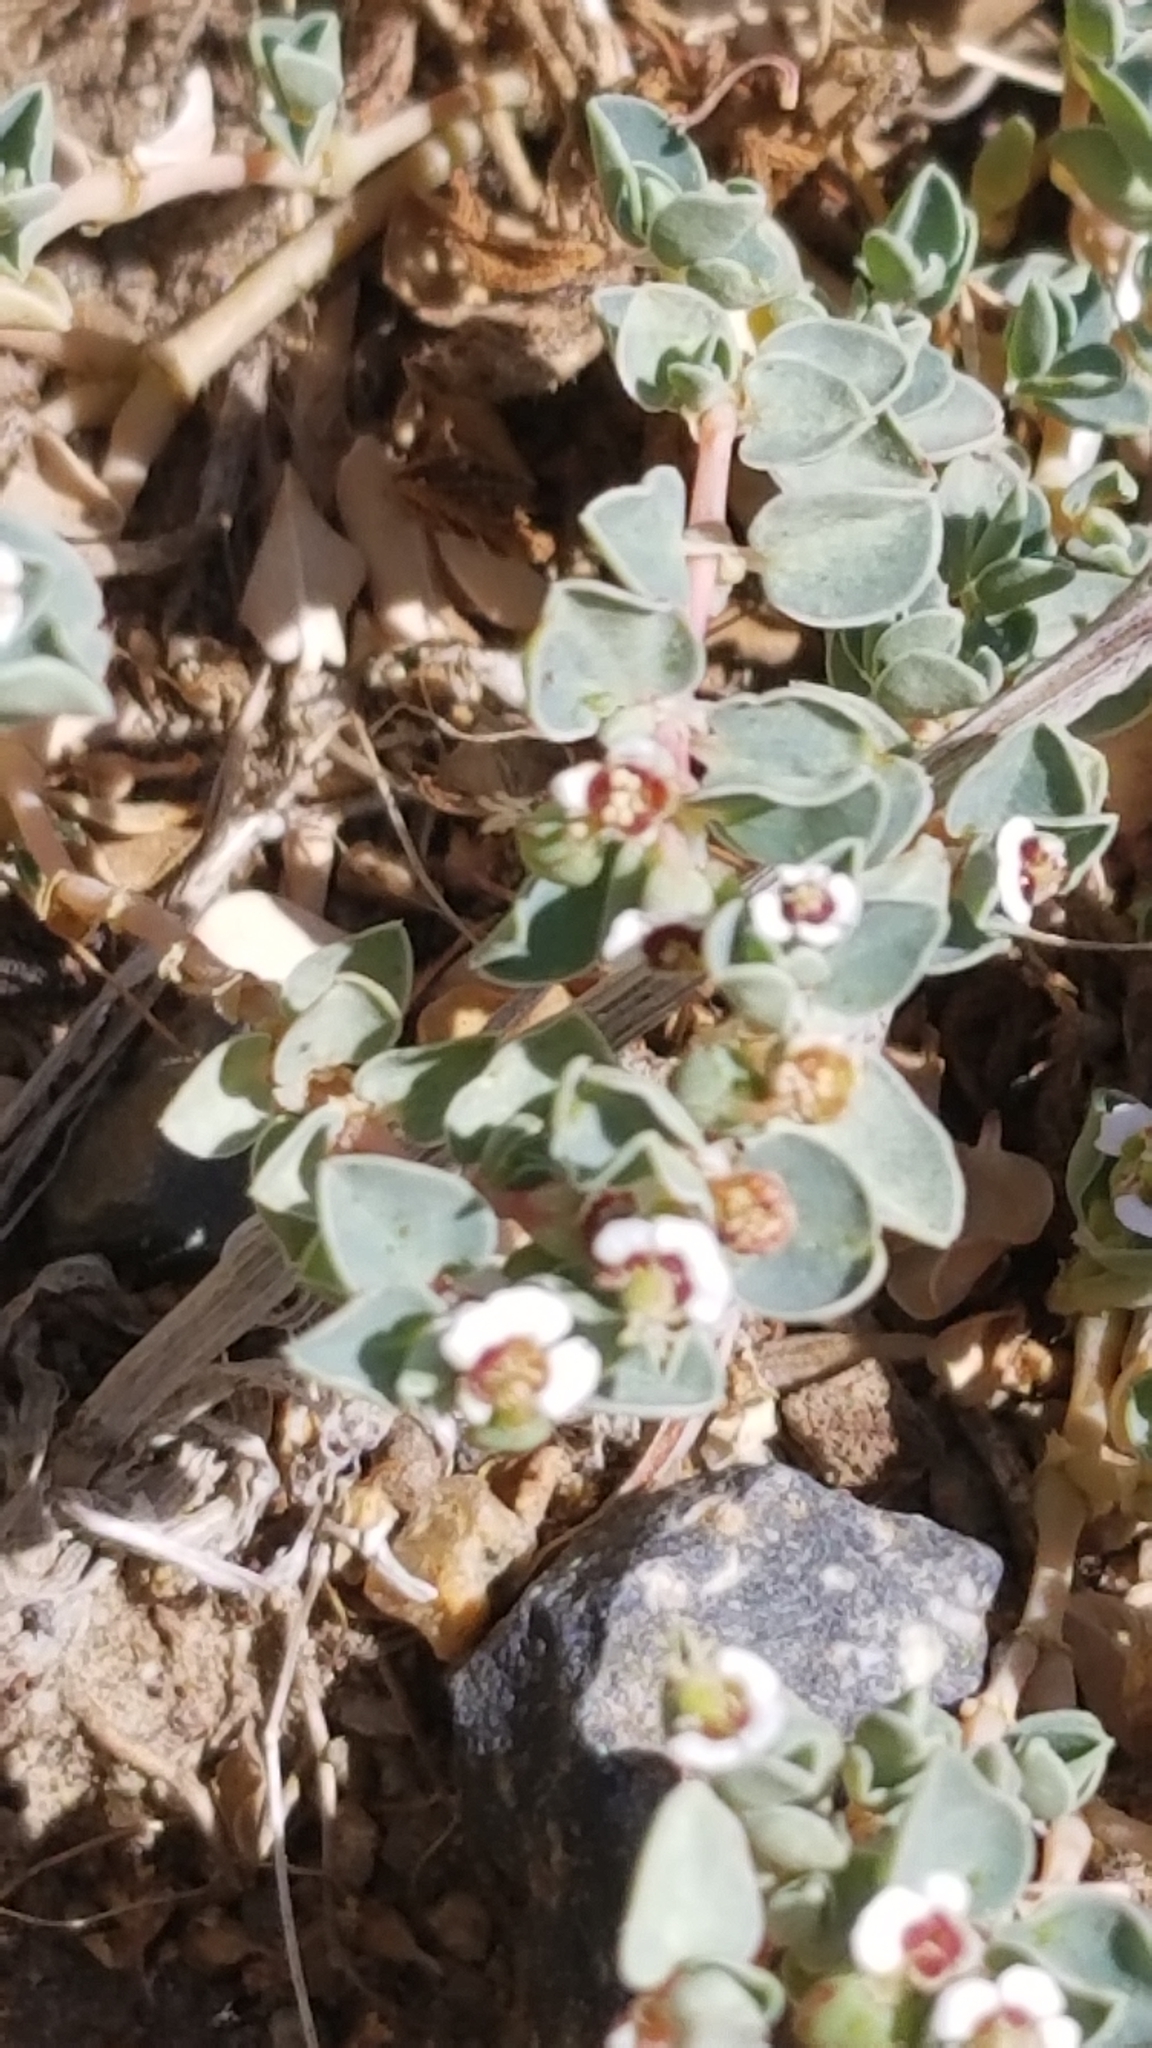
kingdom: Plantae
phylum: Tracheophyta
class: Magnoliopsida
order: Malpighiales
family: Euphorbiaceae
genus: Euphorbia
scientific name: Euphorbia albomarginata
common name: Whitemargin sandmat
